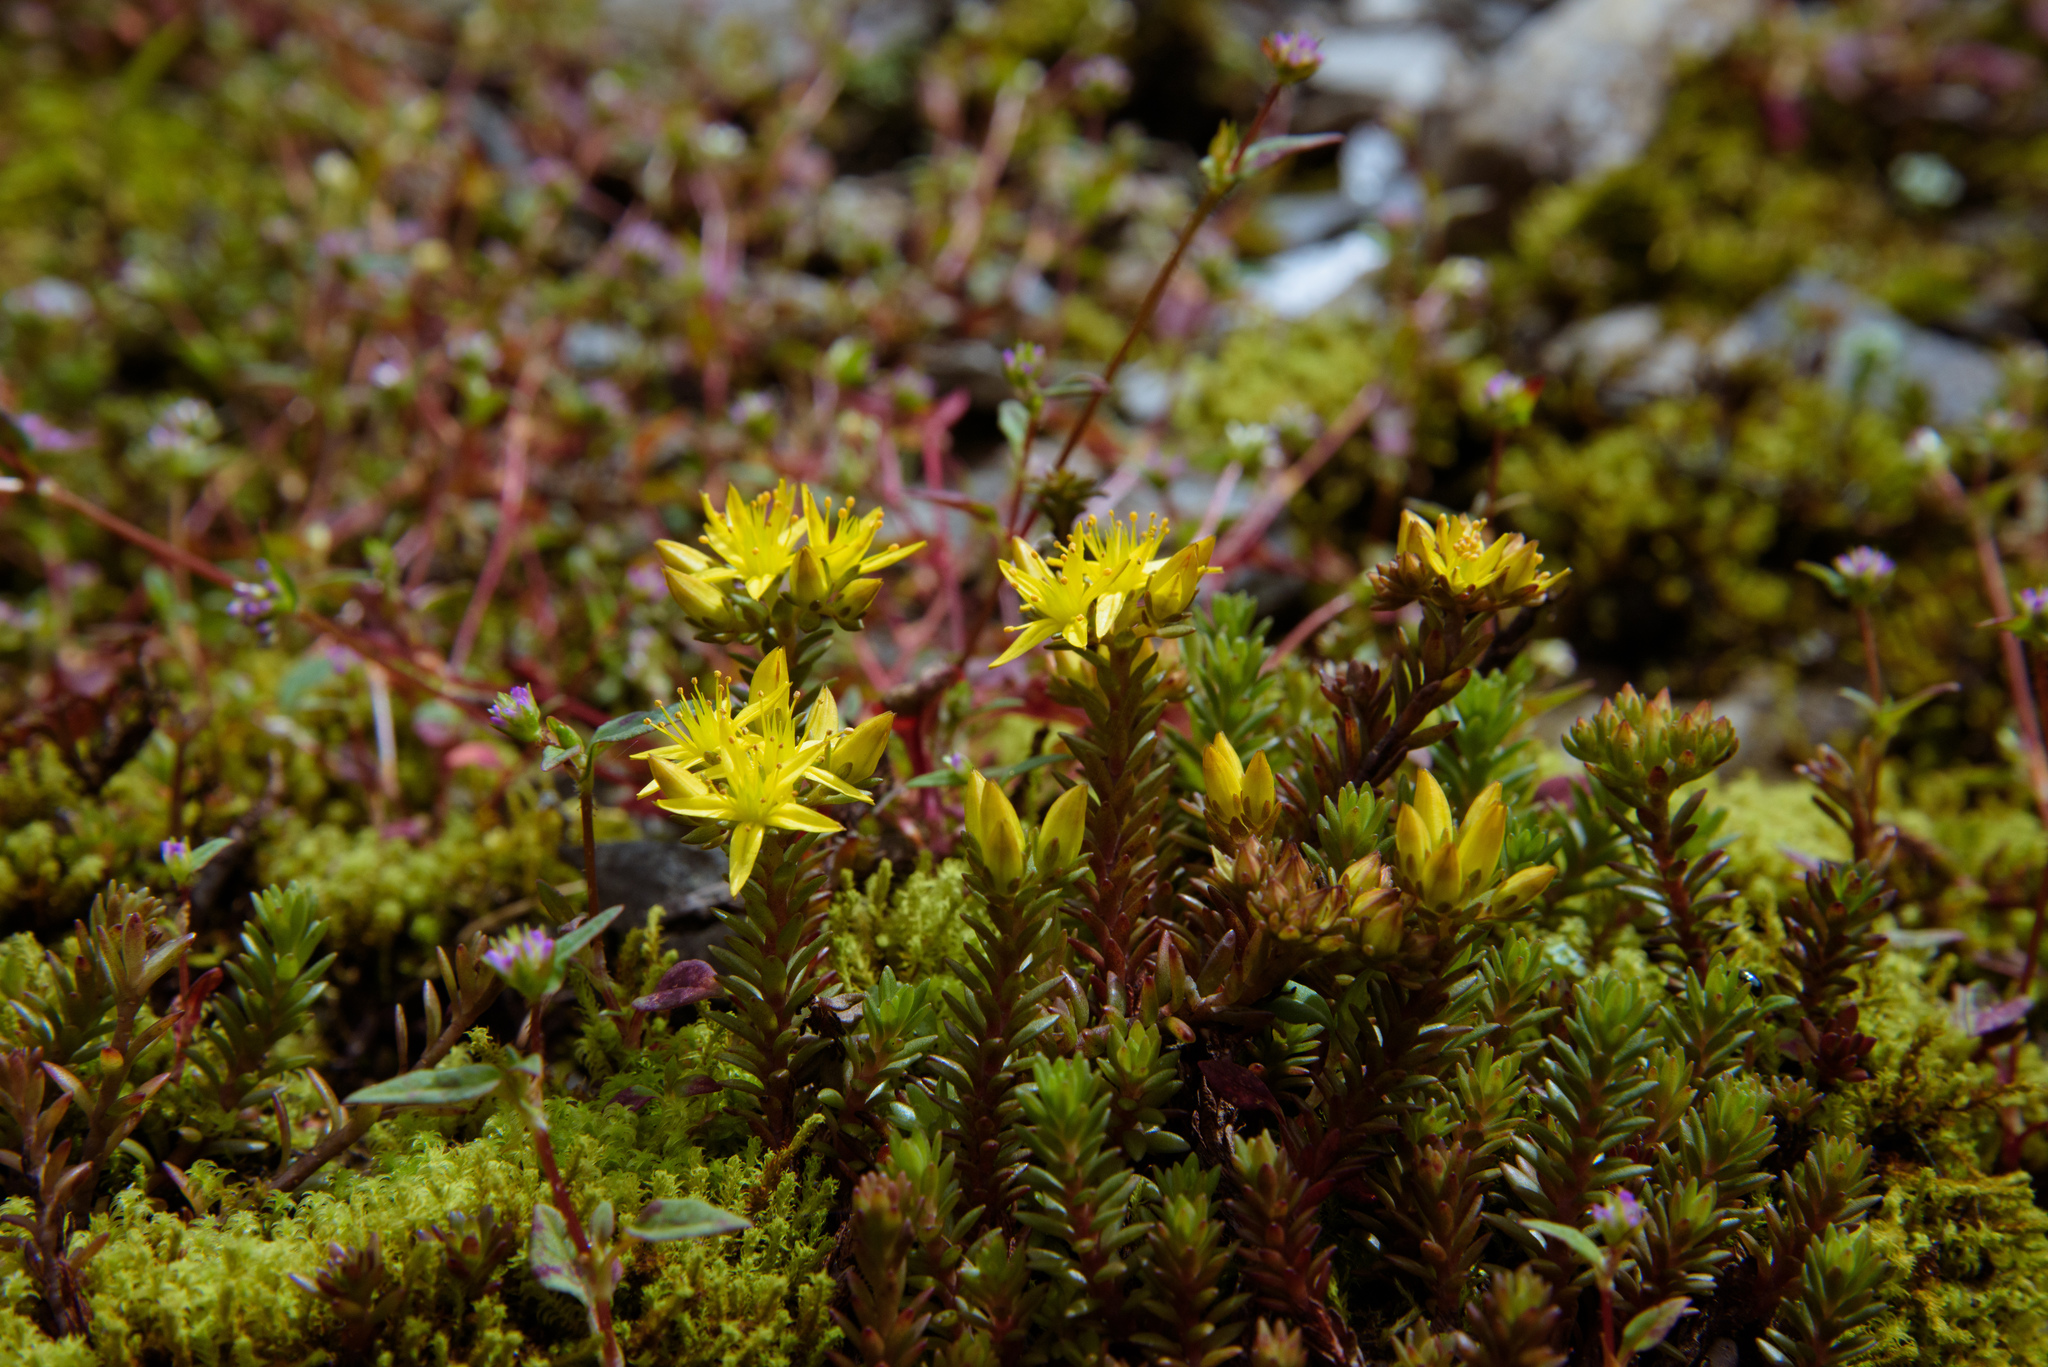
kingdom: Plantae
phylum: Tracheophyta
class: Magnoliopsida
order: Saxifragales
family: Crassulaceae
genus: Sedum
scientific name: Sedum morrisonense
